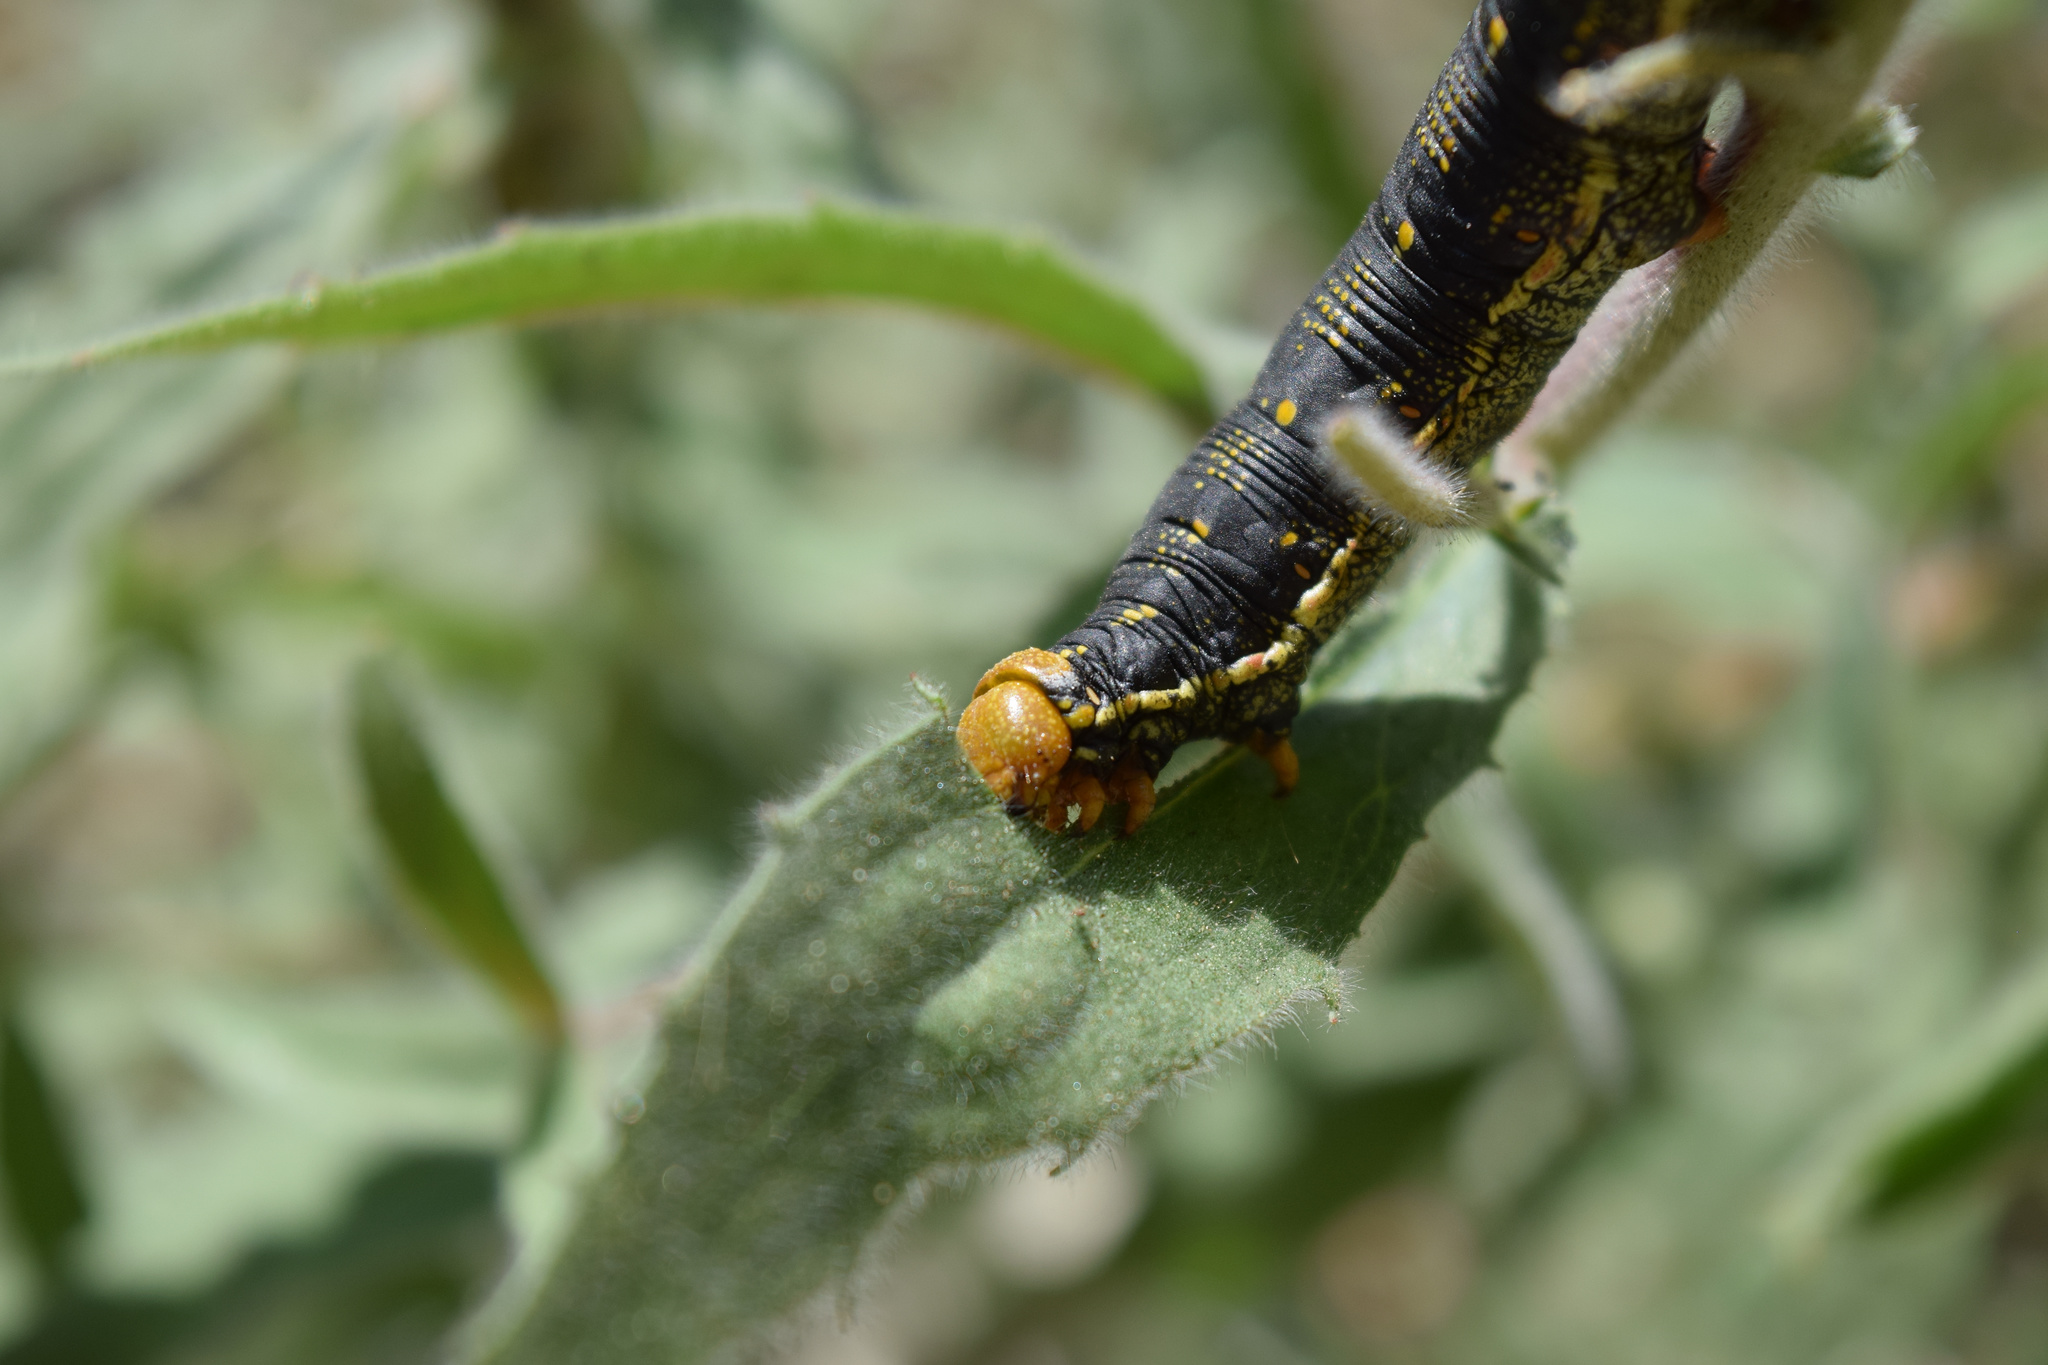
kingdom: Animalia
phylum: Arthropoda
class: Insecta
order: Lepidoptera
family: Sphingidae
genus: Hyles
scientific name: Hyles lineata
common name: White-lined sphinx
